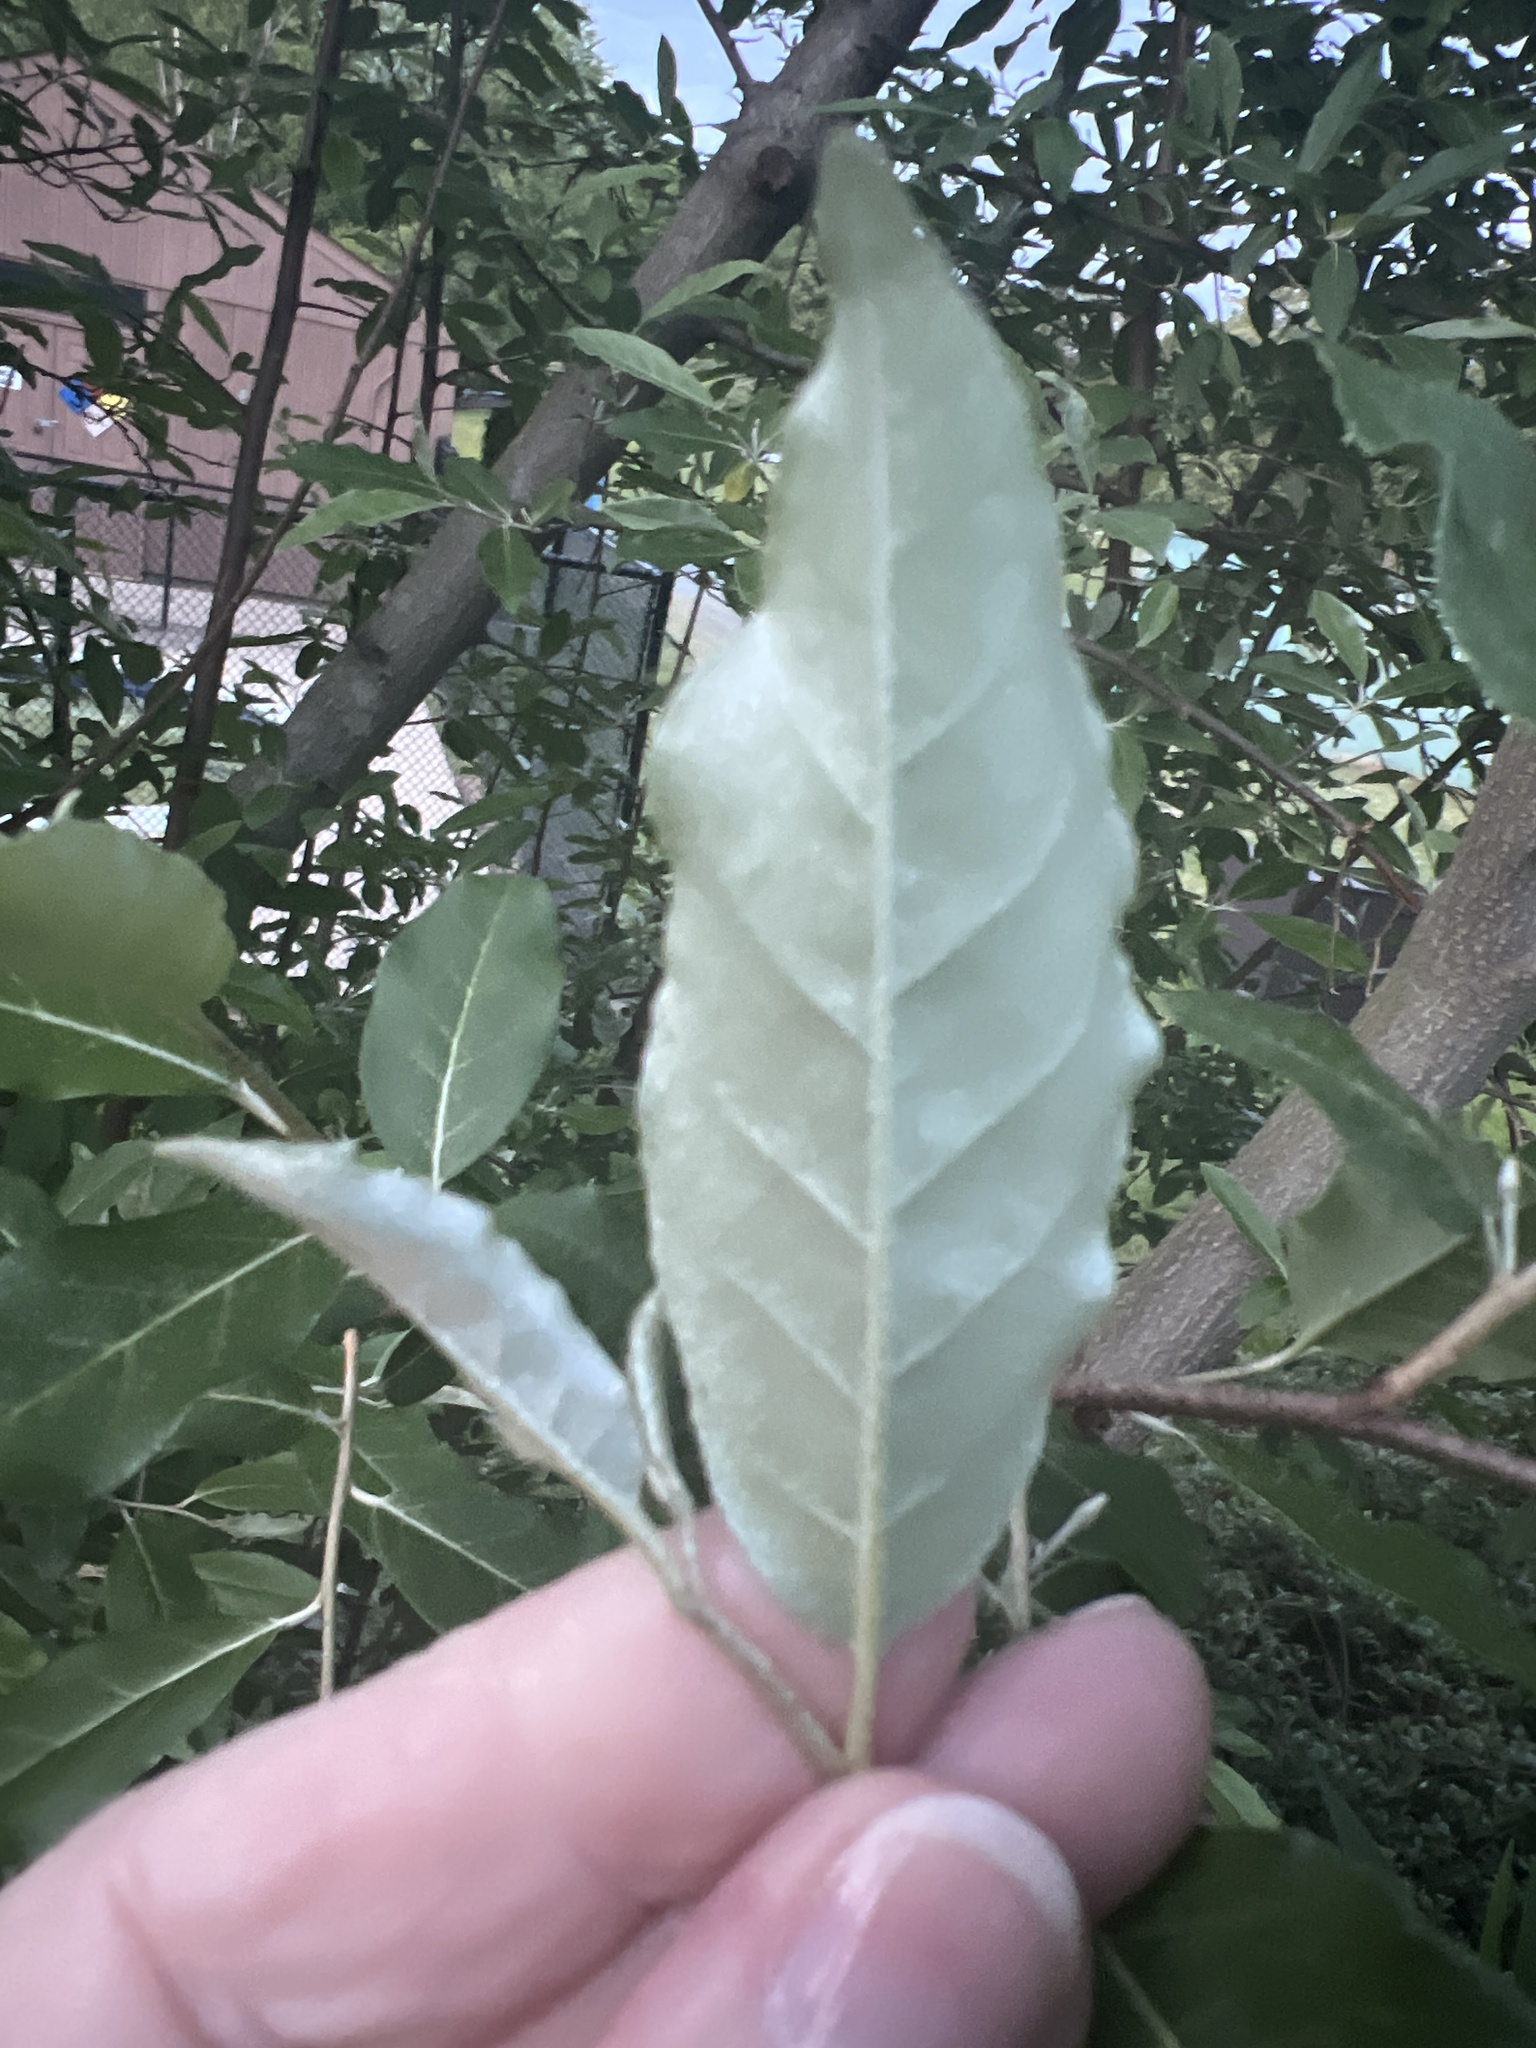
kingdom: Plantae
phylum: Tracheophyta
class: Magnoliopsida
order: Rosales
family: Elaeagnaceae
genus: Elaeagnus
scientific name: Elaeagnus umbellata
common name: Autumn olive
